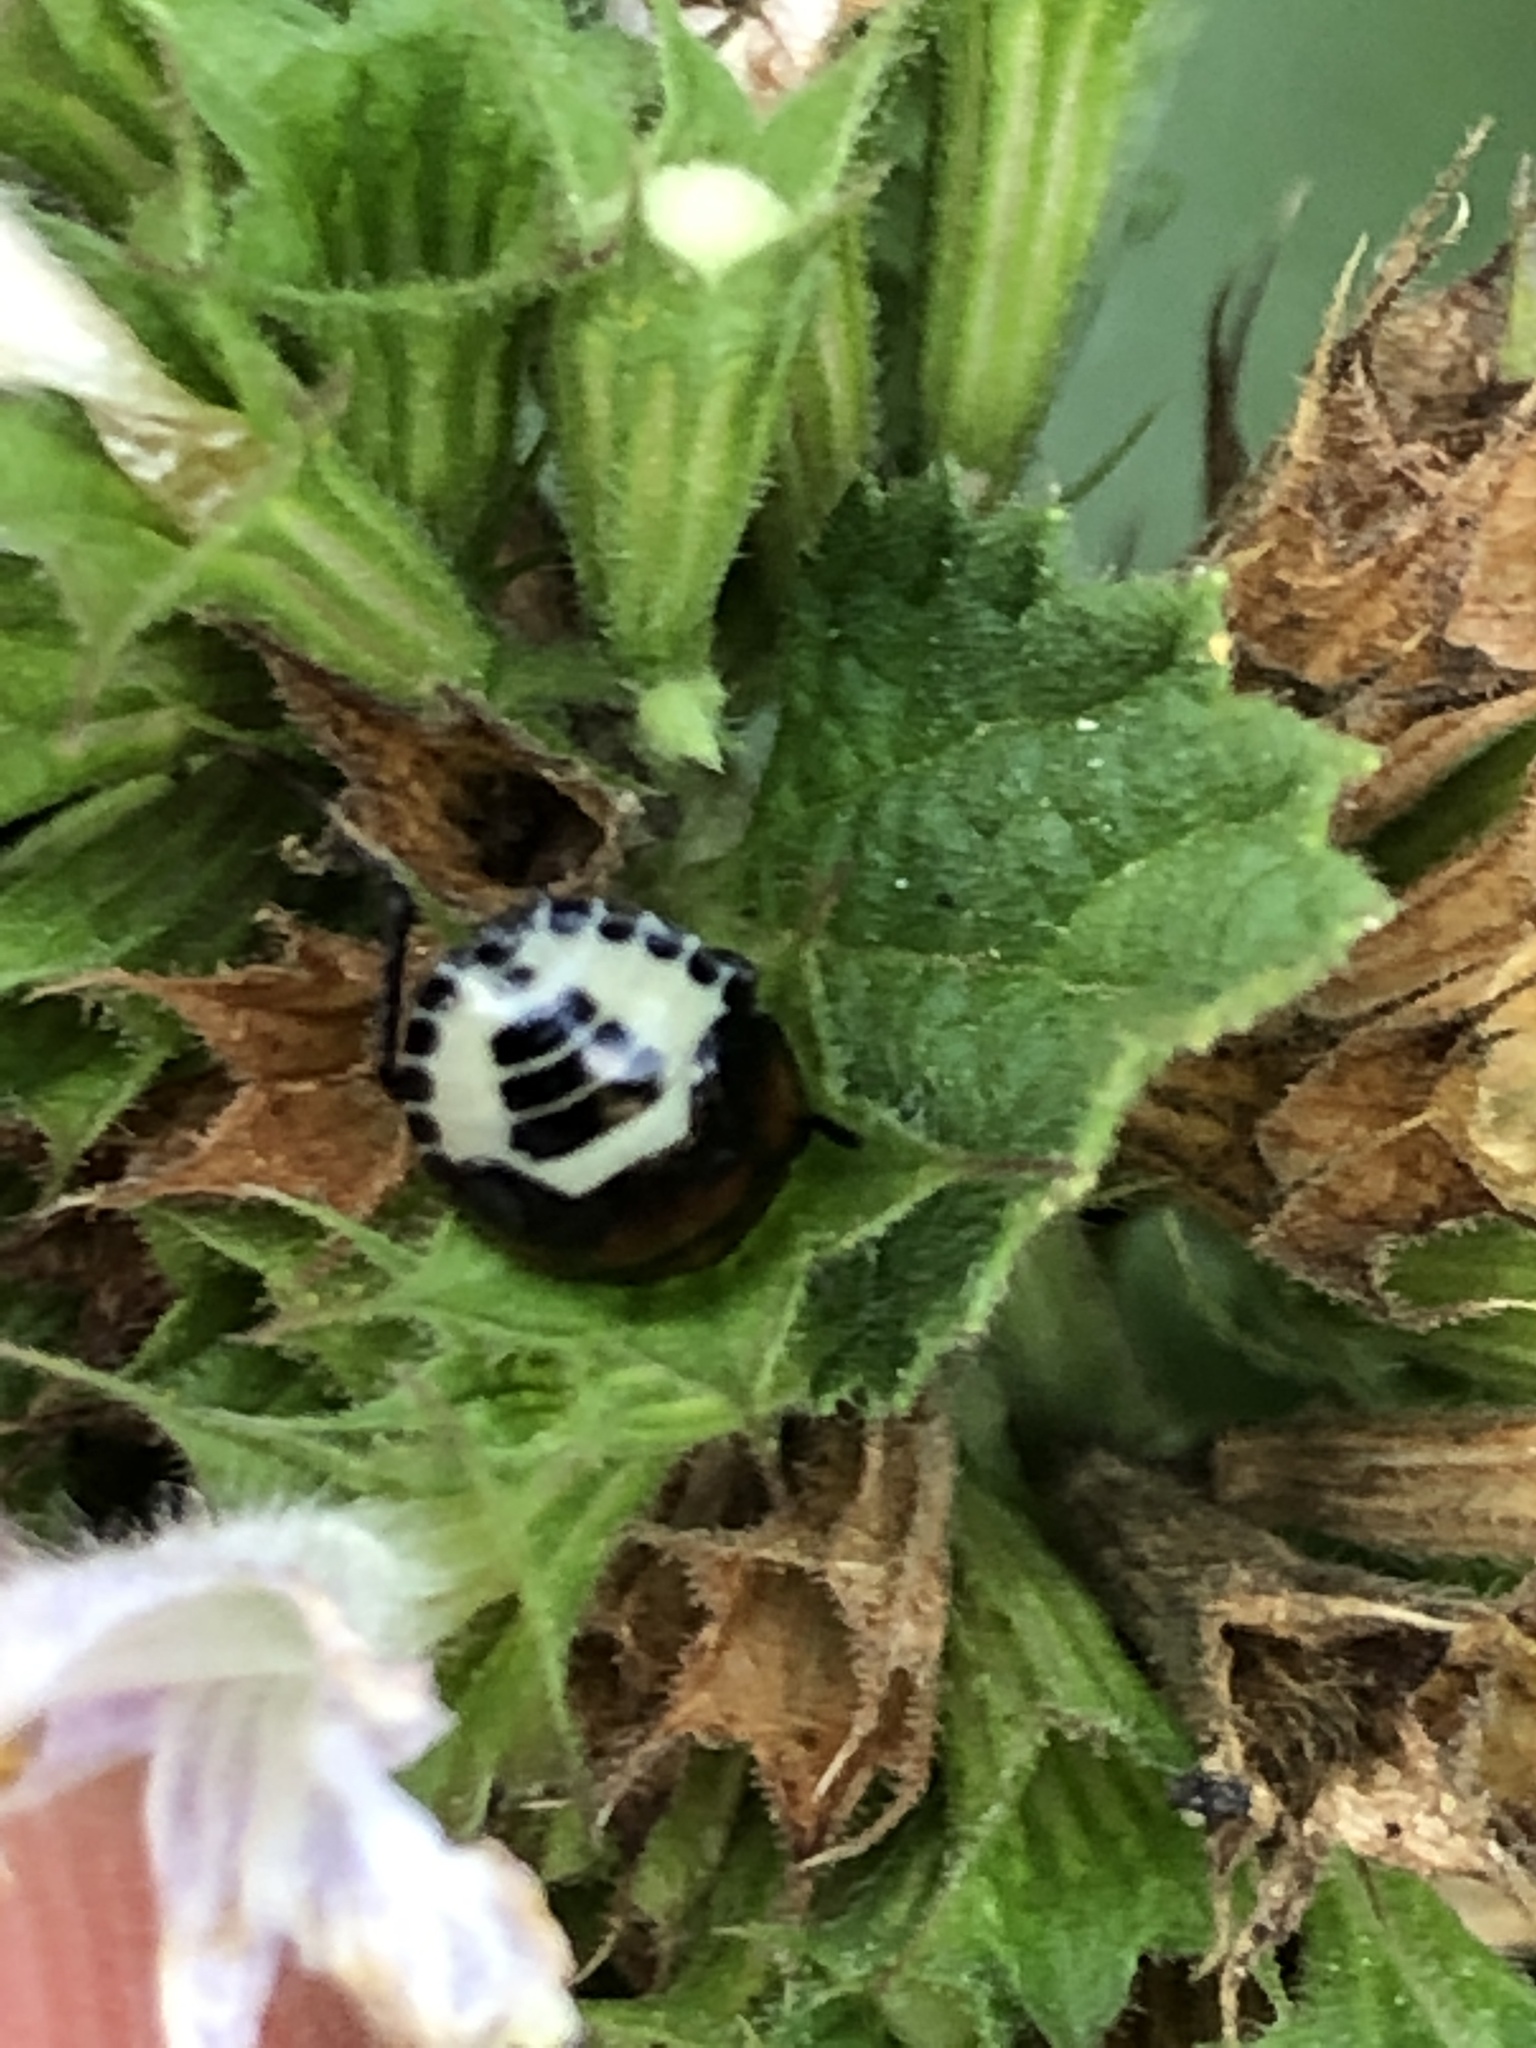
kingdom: Animalia
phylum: Arthropoda
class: Insecta
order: Hemiptera
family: Cydnidae
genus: Tritomegas
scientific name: Tritomegas sexmaculatus
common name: Rambur's pied shieldbug
